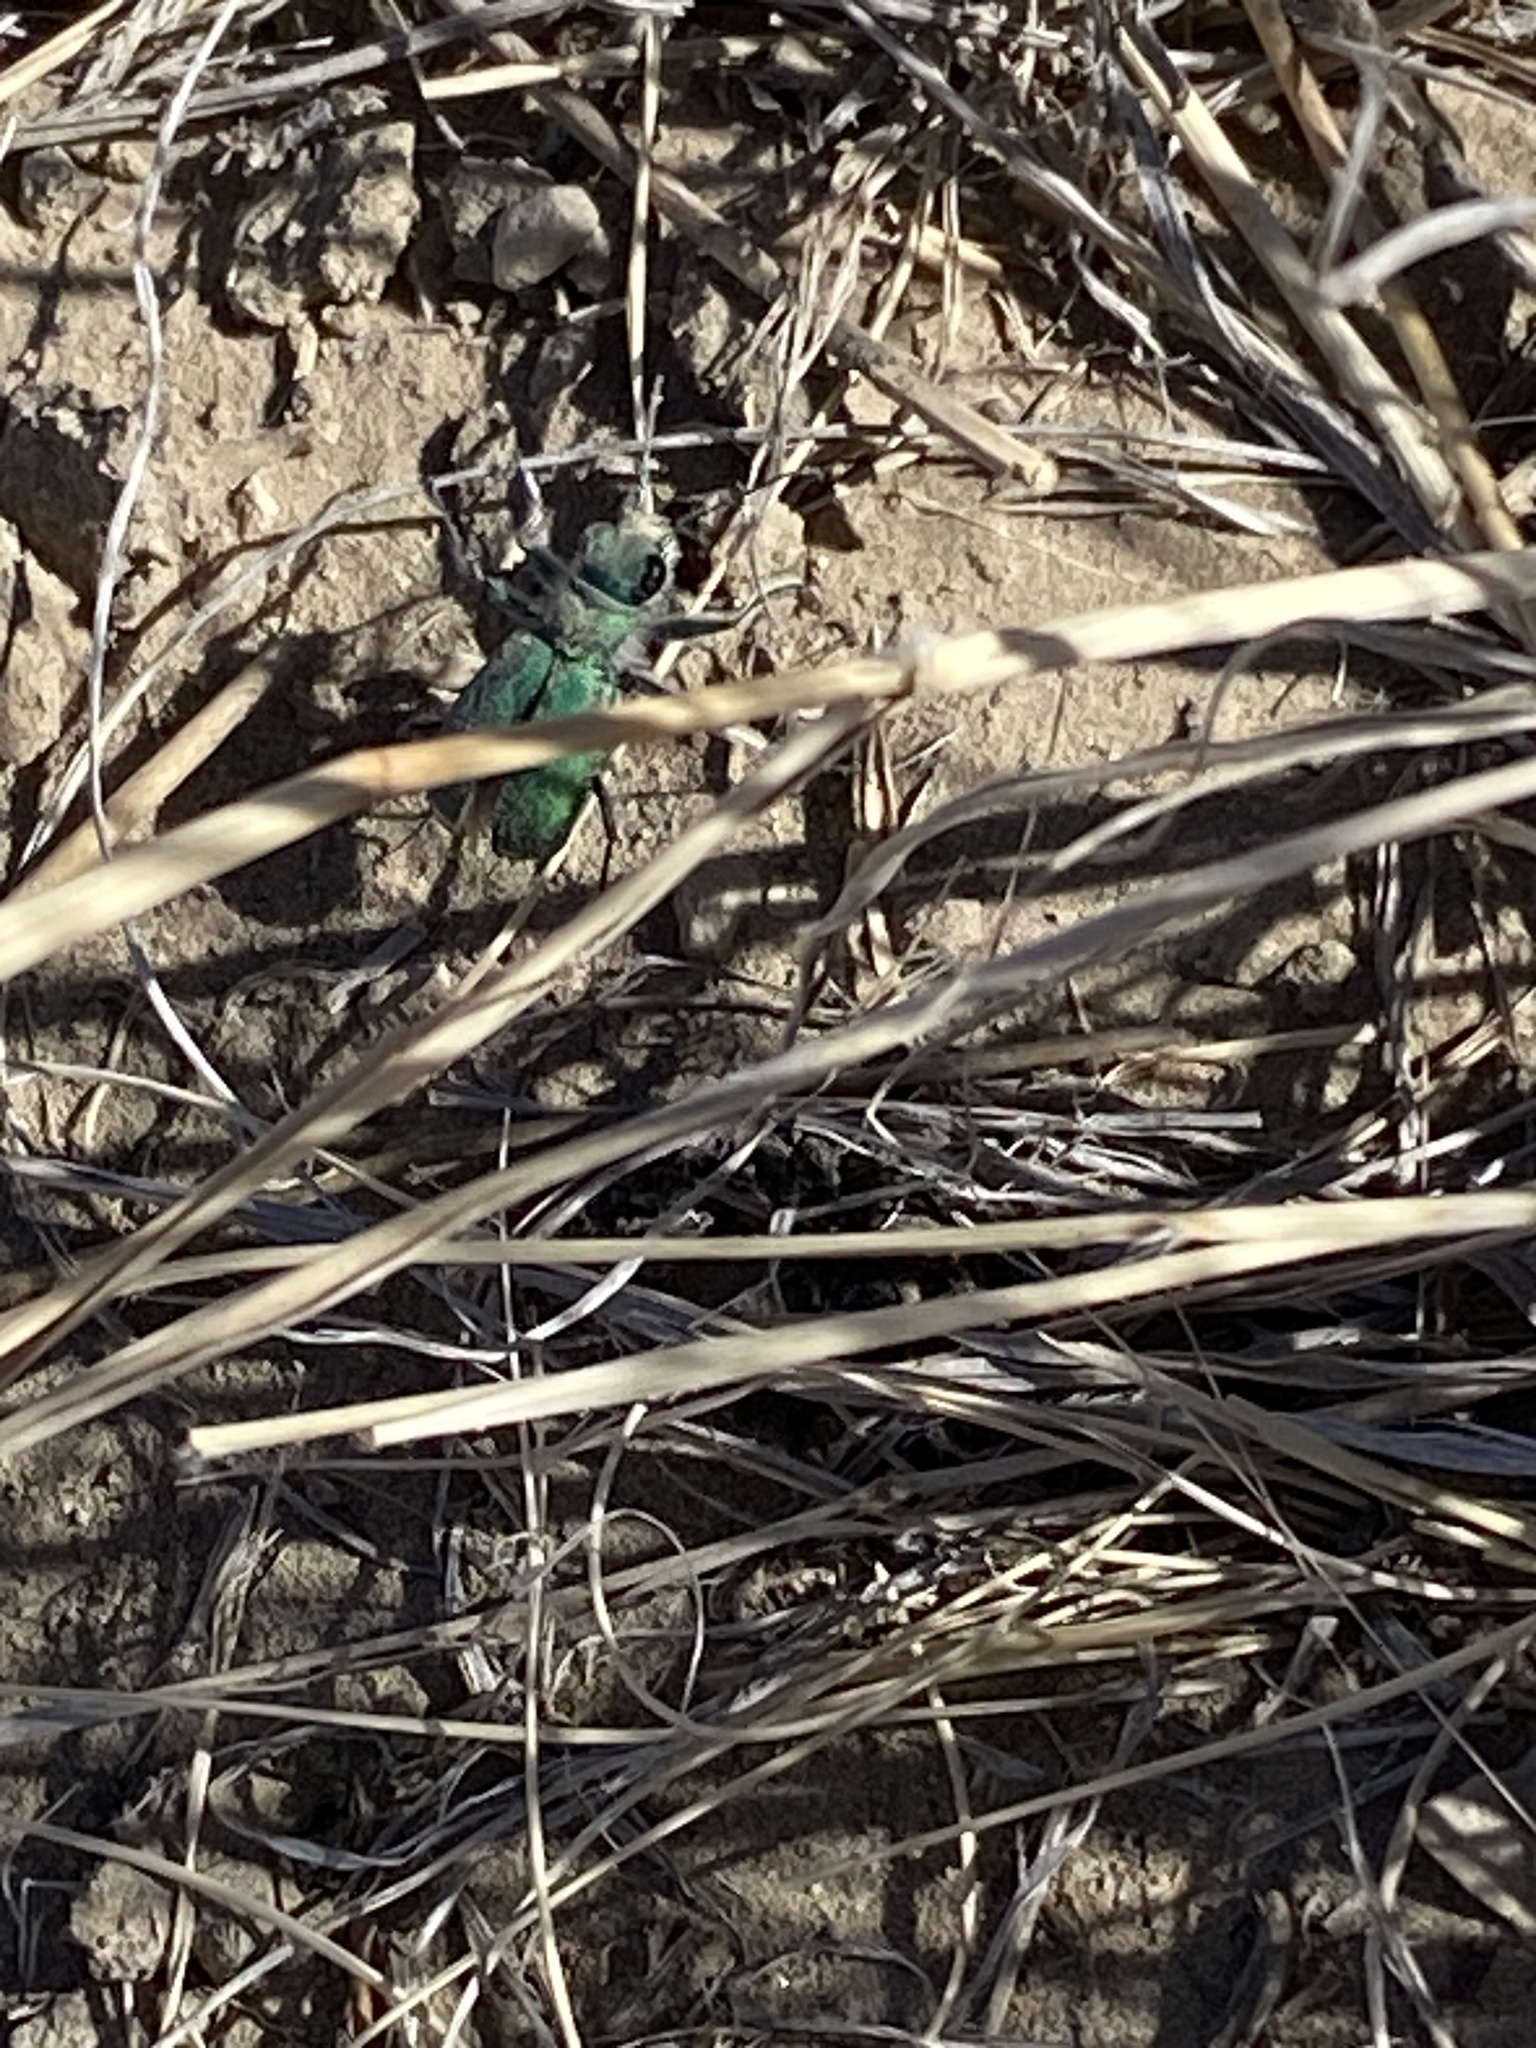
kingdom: Animalia
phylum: Arthropoda
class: Insecta
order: Coleoptera
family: Carabidae
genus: Cicindela
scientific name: Cicindela denverensis
